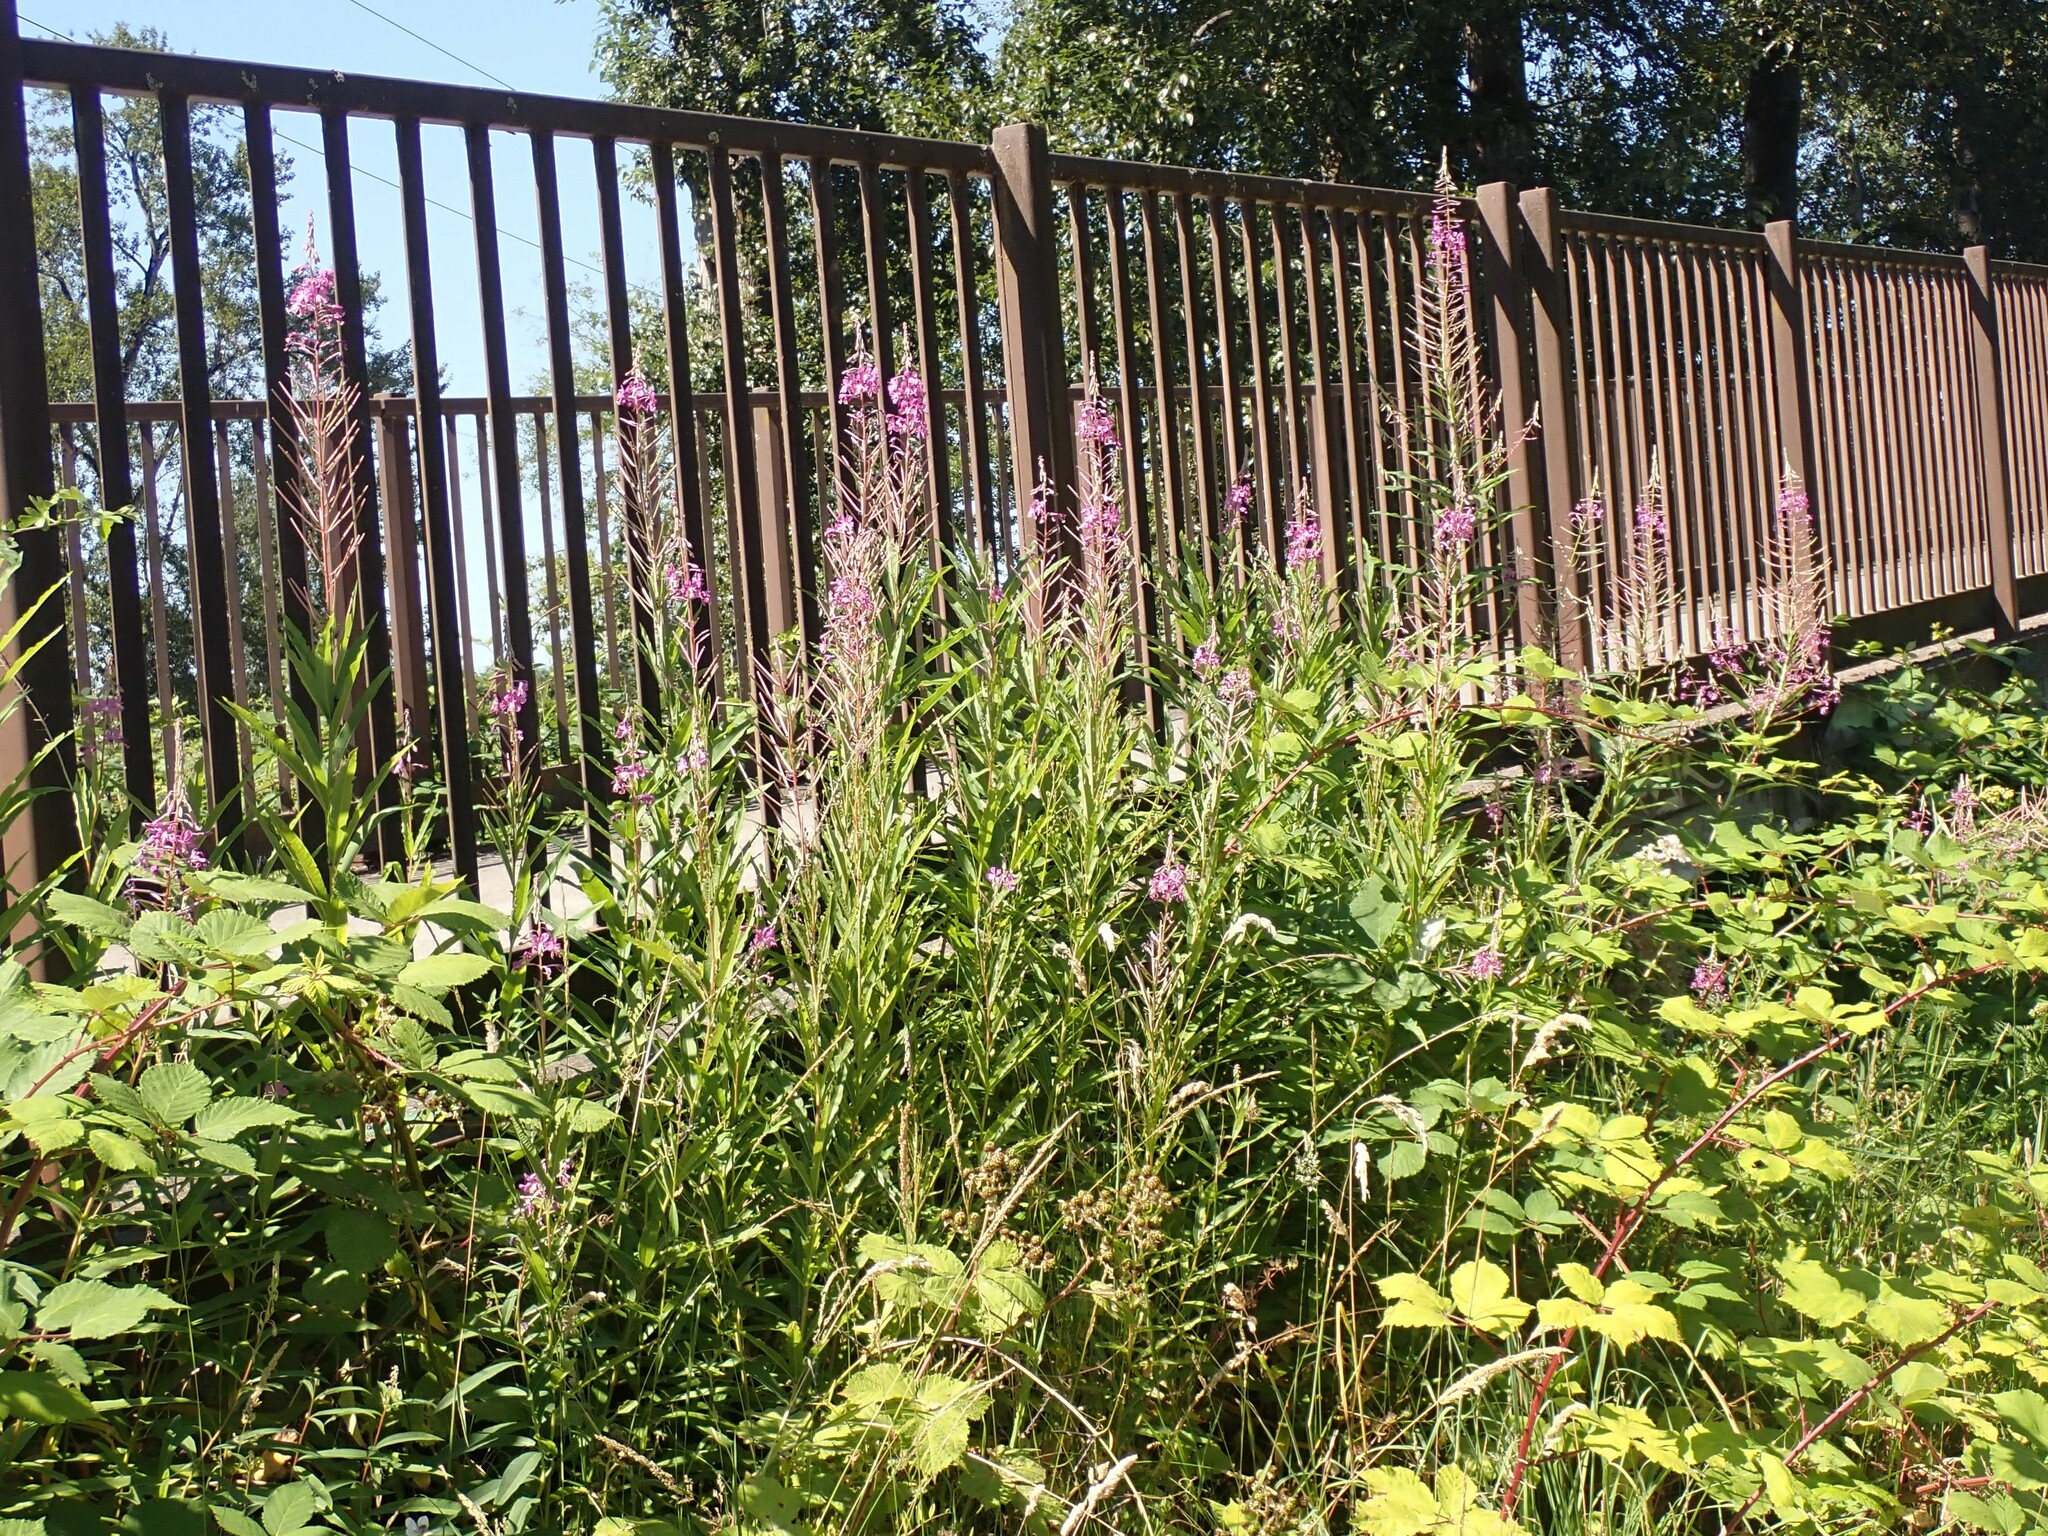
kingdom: Plantae
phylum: Tracheophyta
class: Magnoliopsida
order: Myrtales
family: Onagraceae
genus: Chamaenerion
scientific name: Chamaenerion angustifolium
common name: Fireweed
